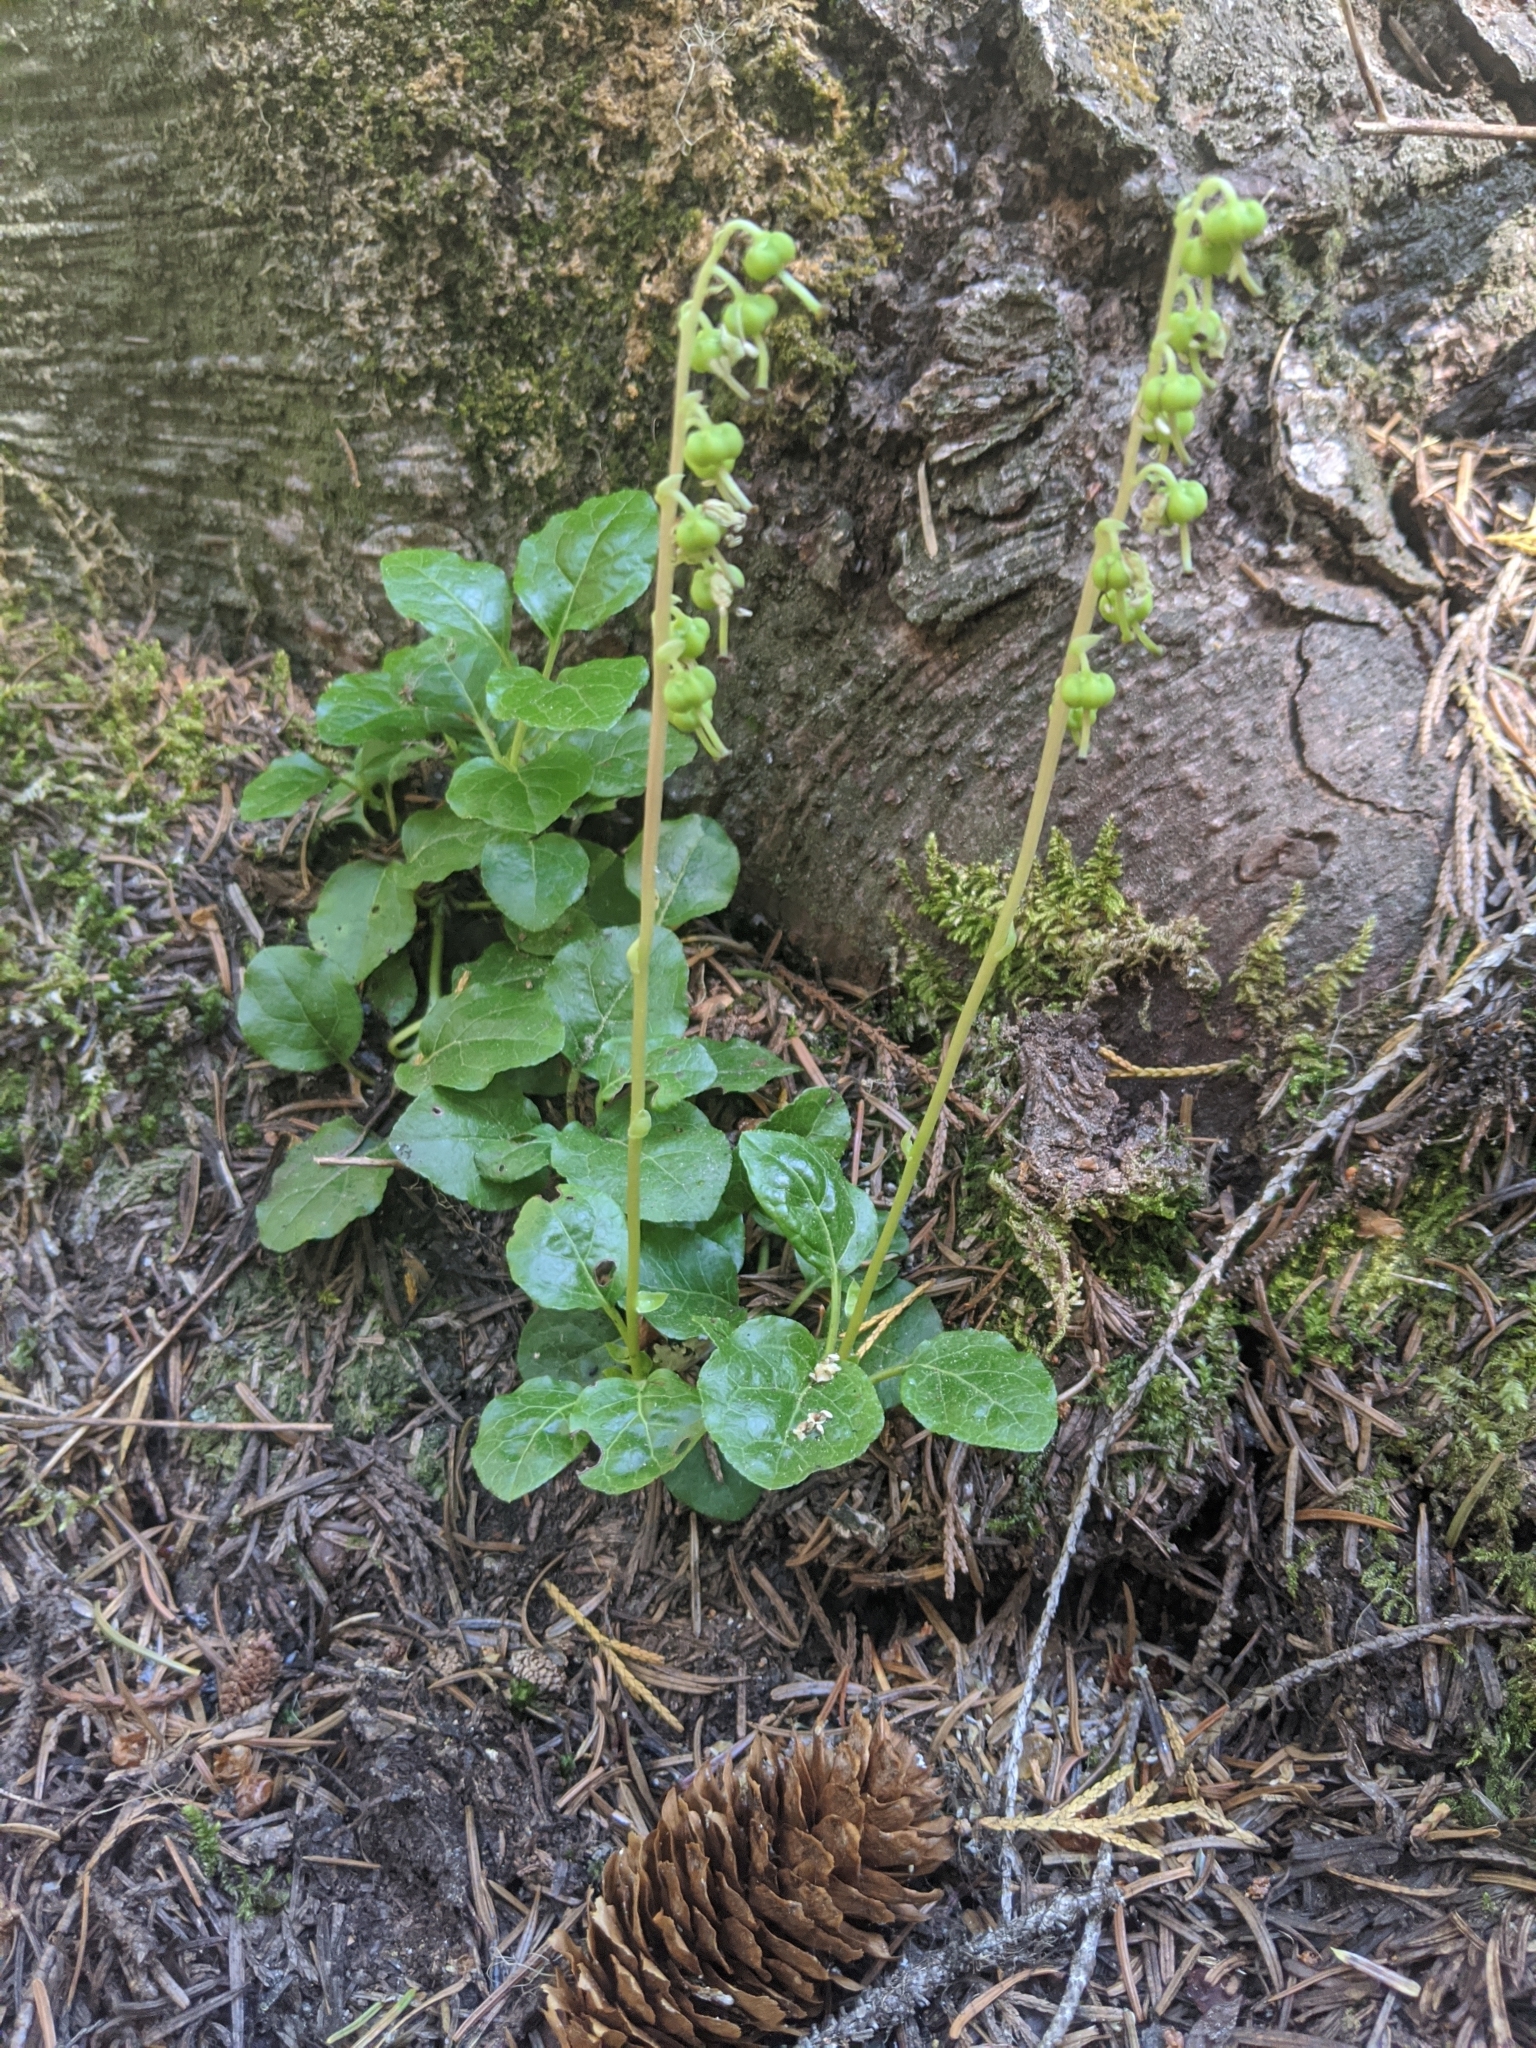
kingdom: Plantae
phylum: Tracheophyta
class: Magnoliopsida
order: Ericales
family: Ericaceae
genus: Orthilia
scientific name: Orthilia secunda
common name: One-sided orthilia
